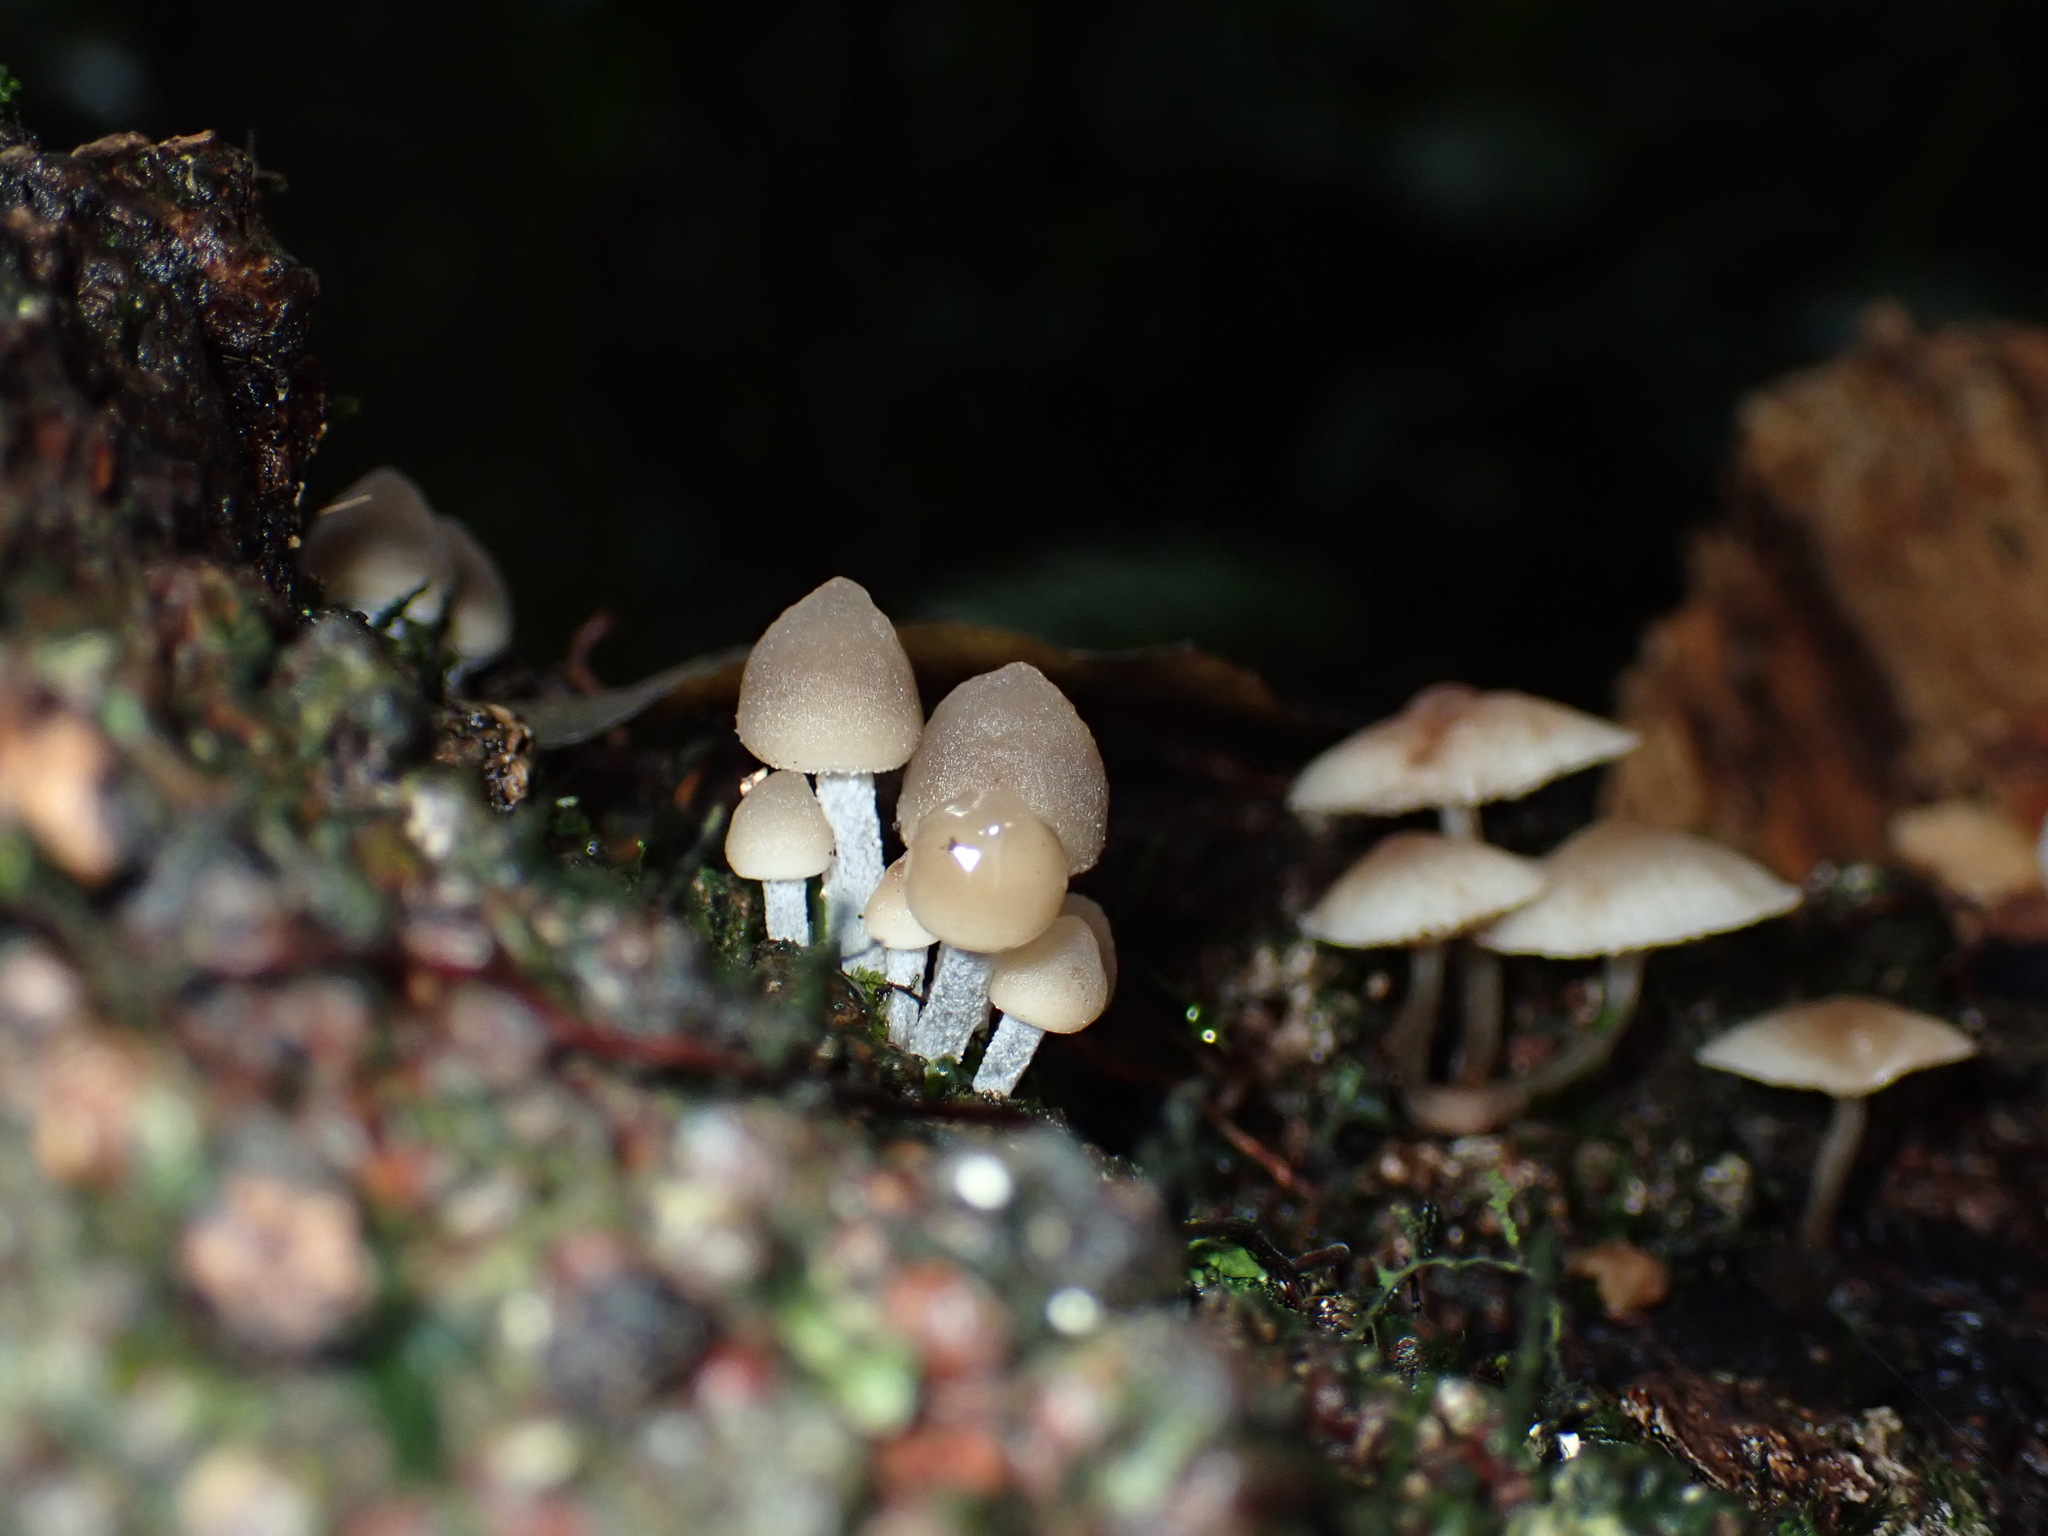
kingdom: Fungi
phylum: Basidiomycota
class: Agaricomycetes
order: Agaricales
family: Mycenaceae
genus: Filoboletus
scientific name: Filoboletus manipularis
